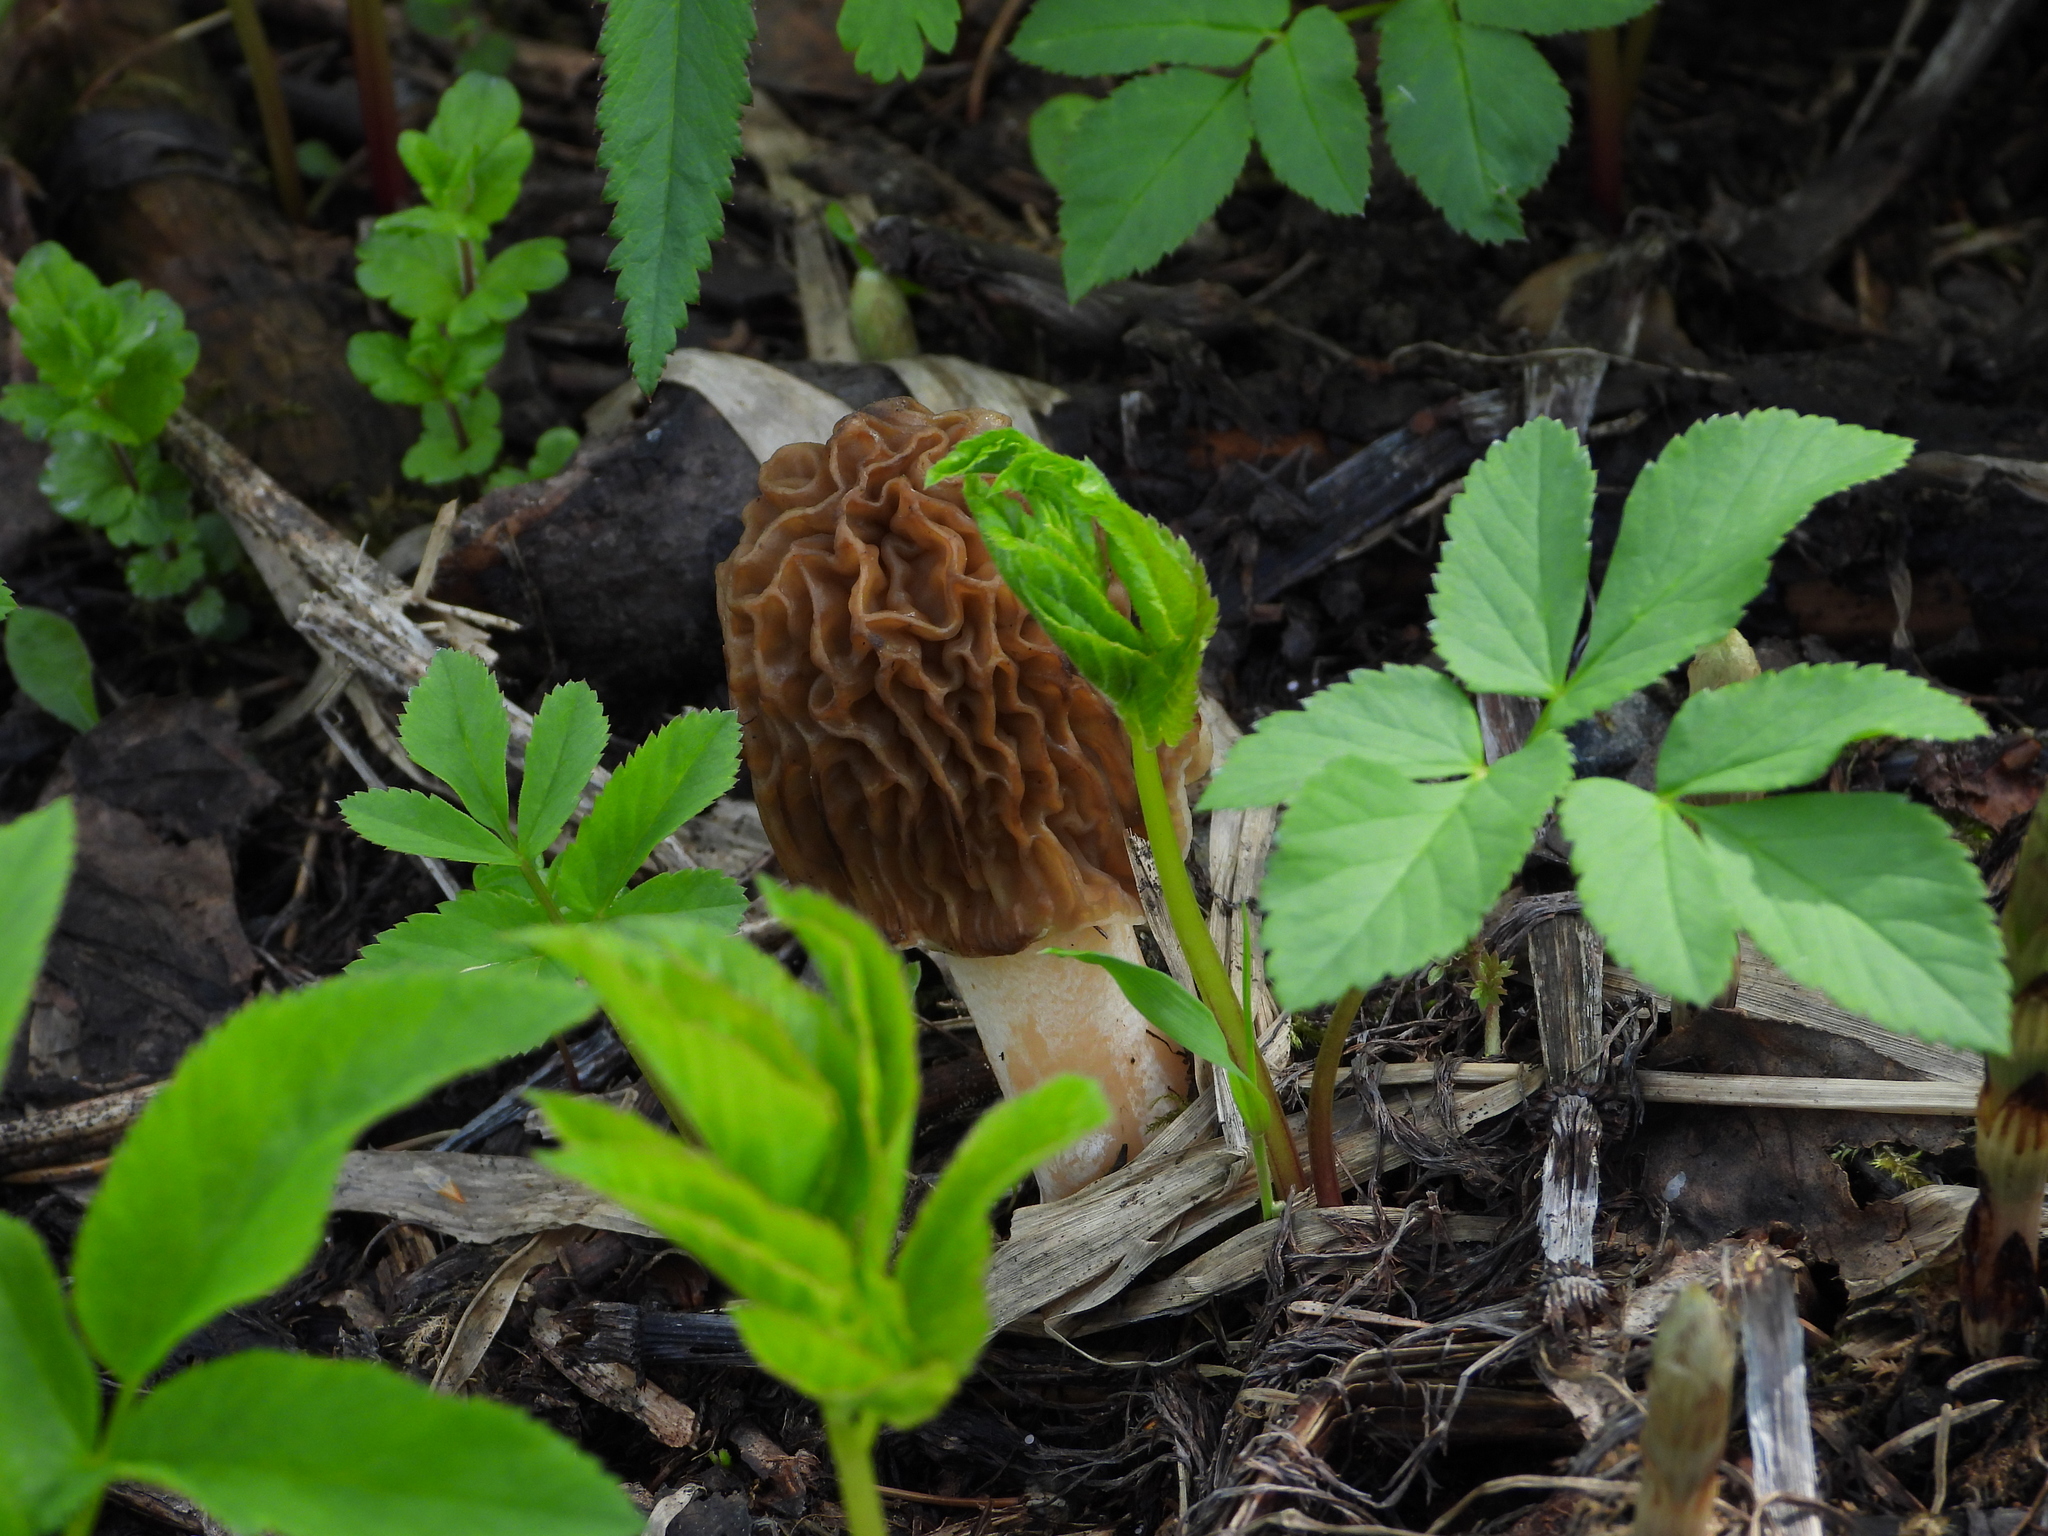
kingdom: Fungi
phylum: Ascomycota
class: Pezizomycetes
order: Pezizales
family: Morchellaceae
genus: Verpa
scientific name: Verpa bohemica
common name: Wrinkled thimble morel
